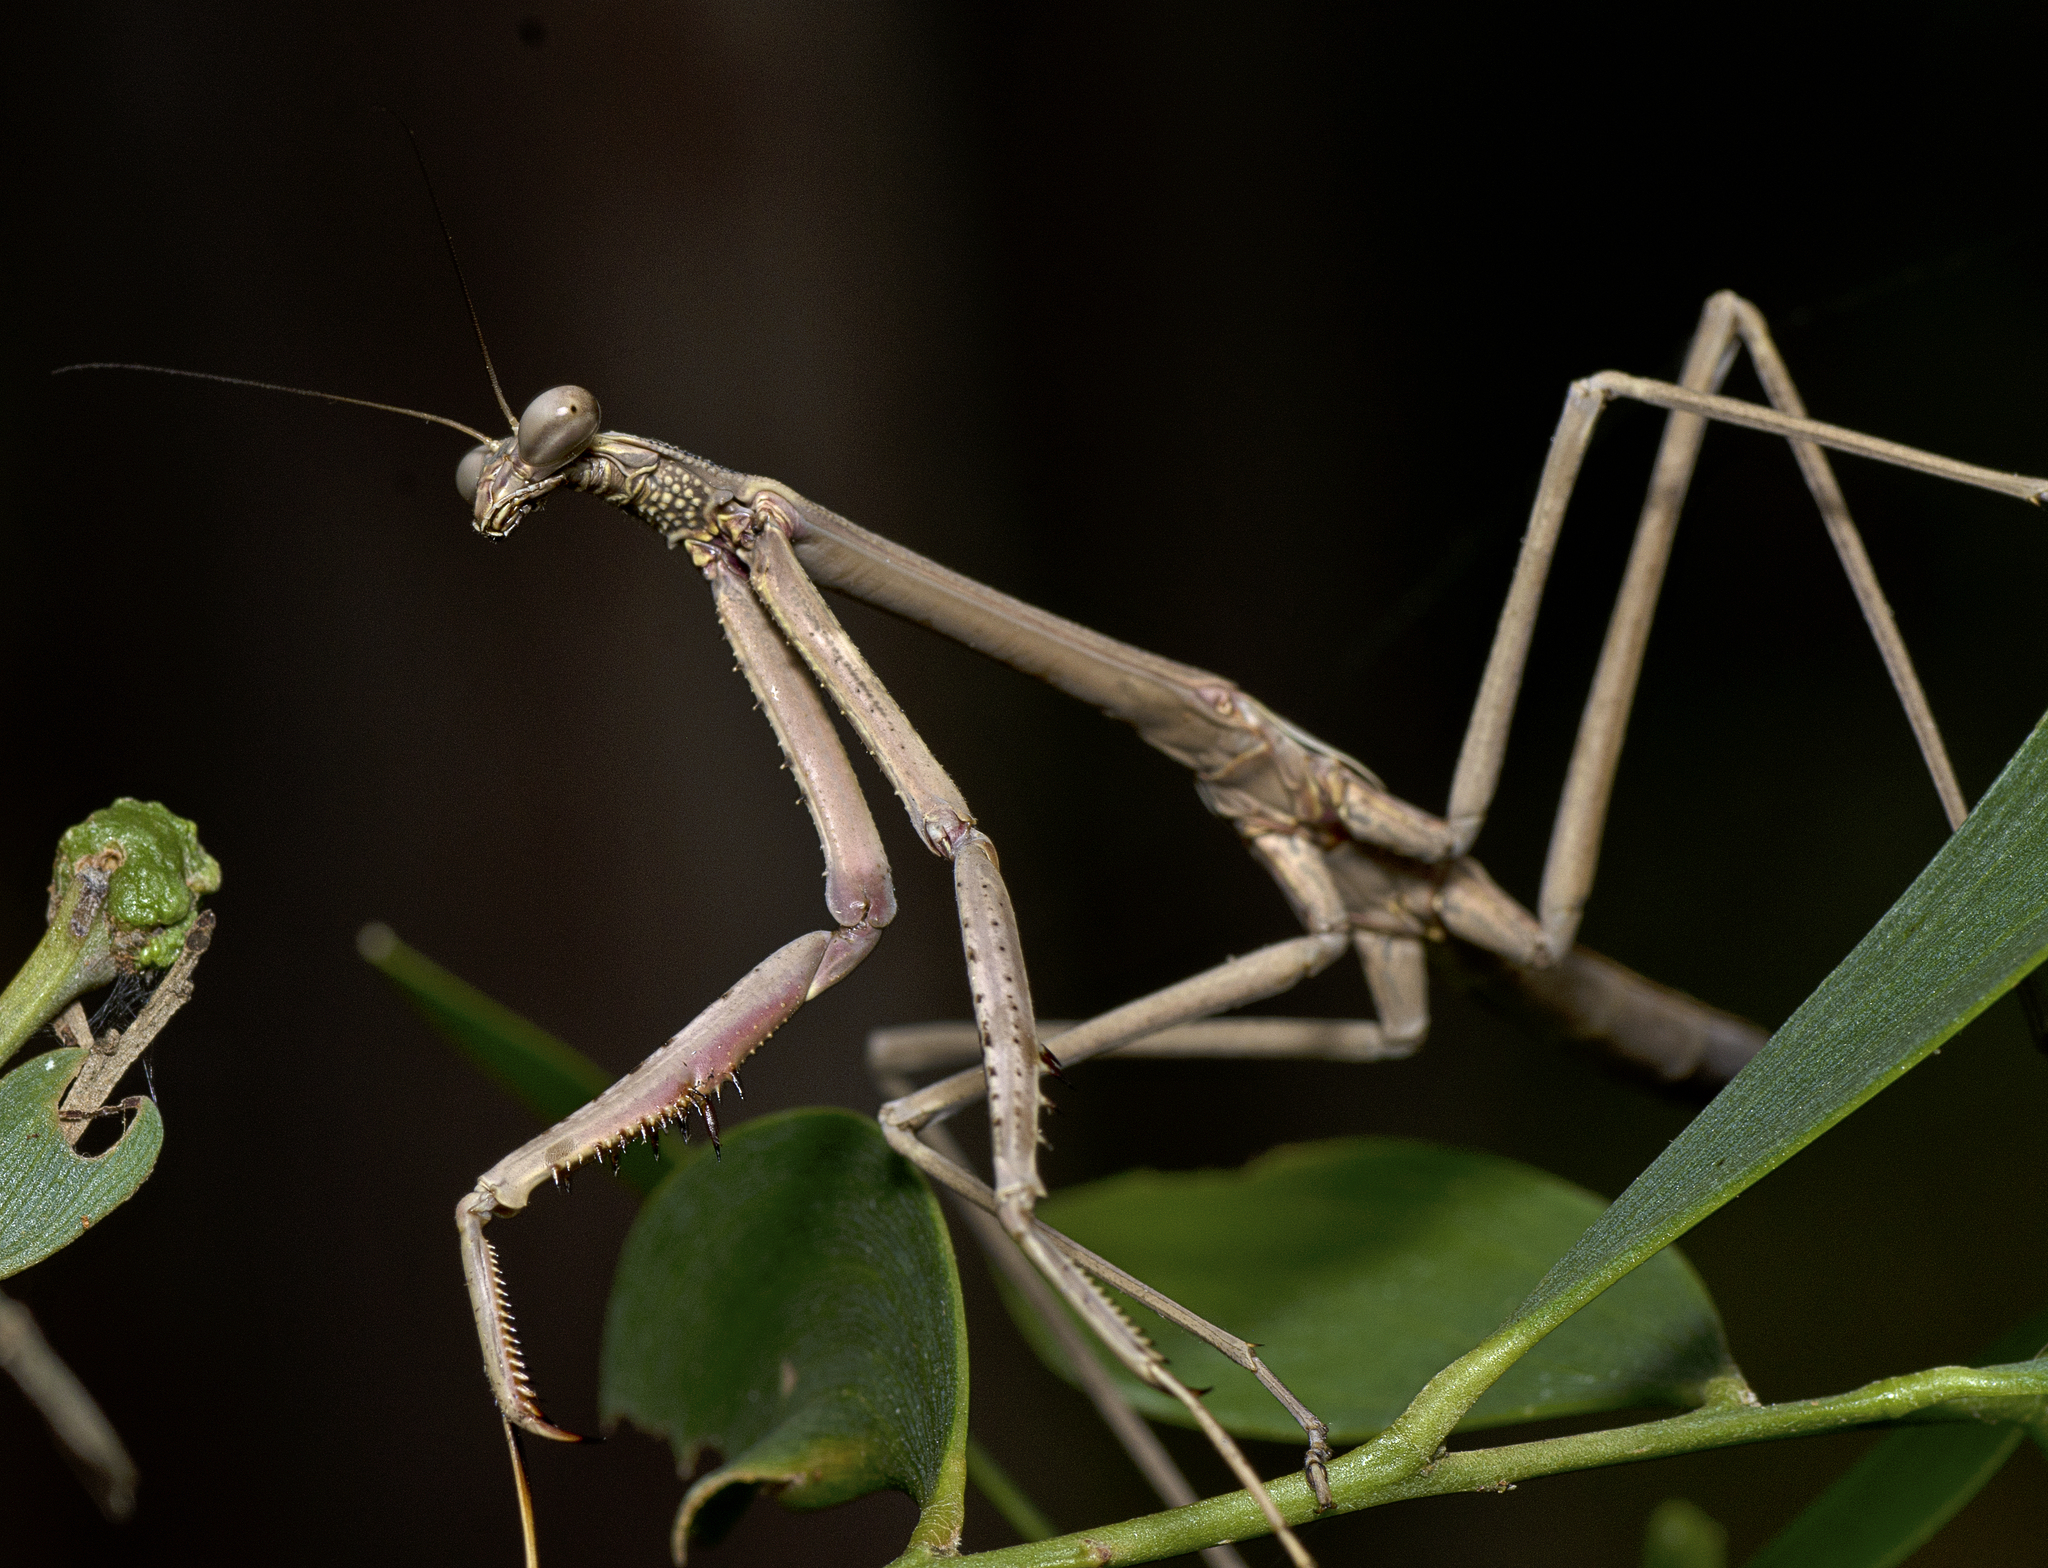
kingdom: Animalia
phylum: Arthropoda
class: Insecta
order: Mantodea
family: Mantidae
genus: Archimantis
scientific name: Archimantis latistyla
